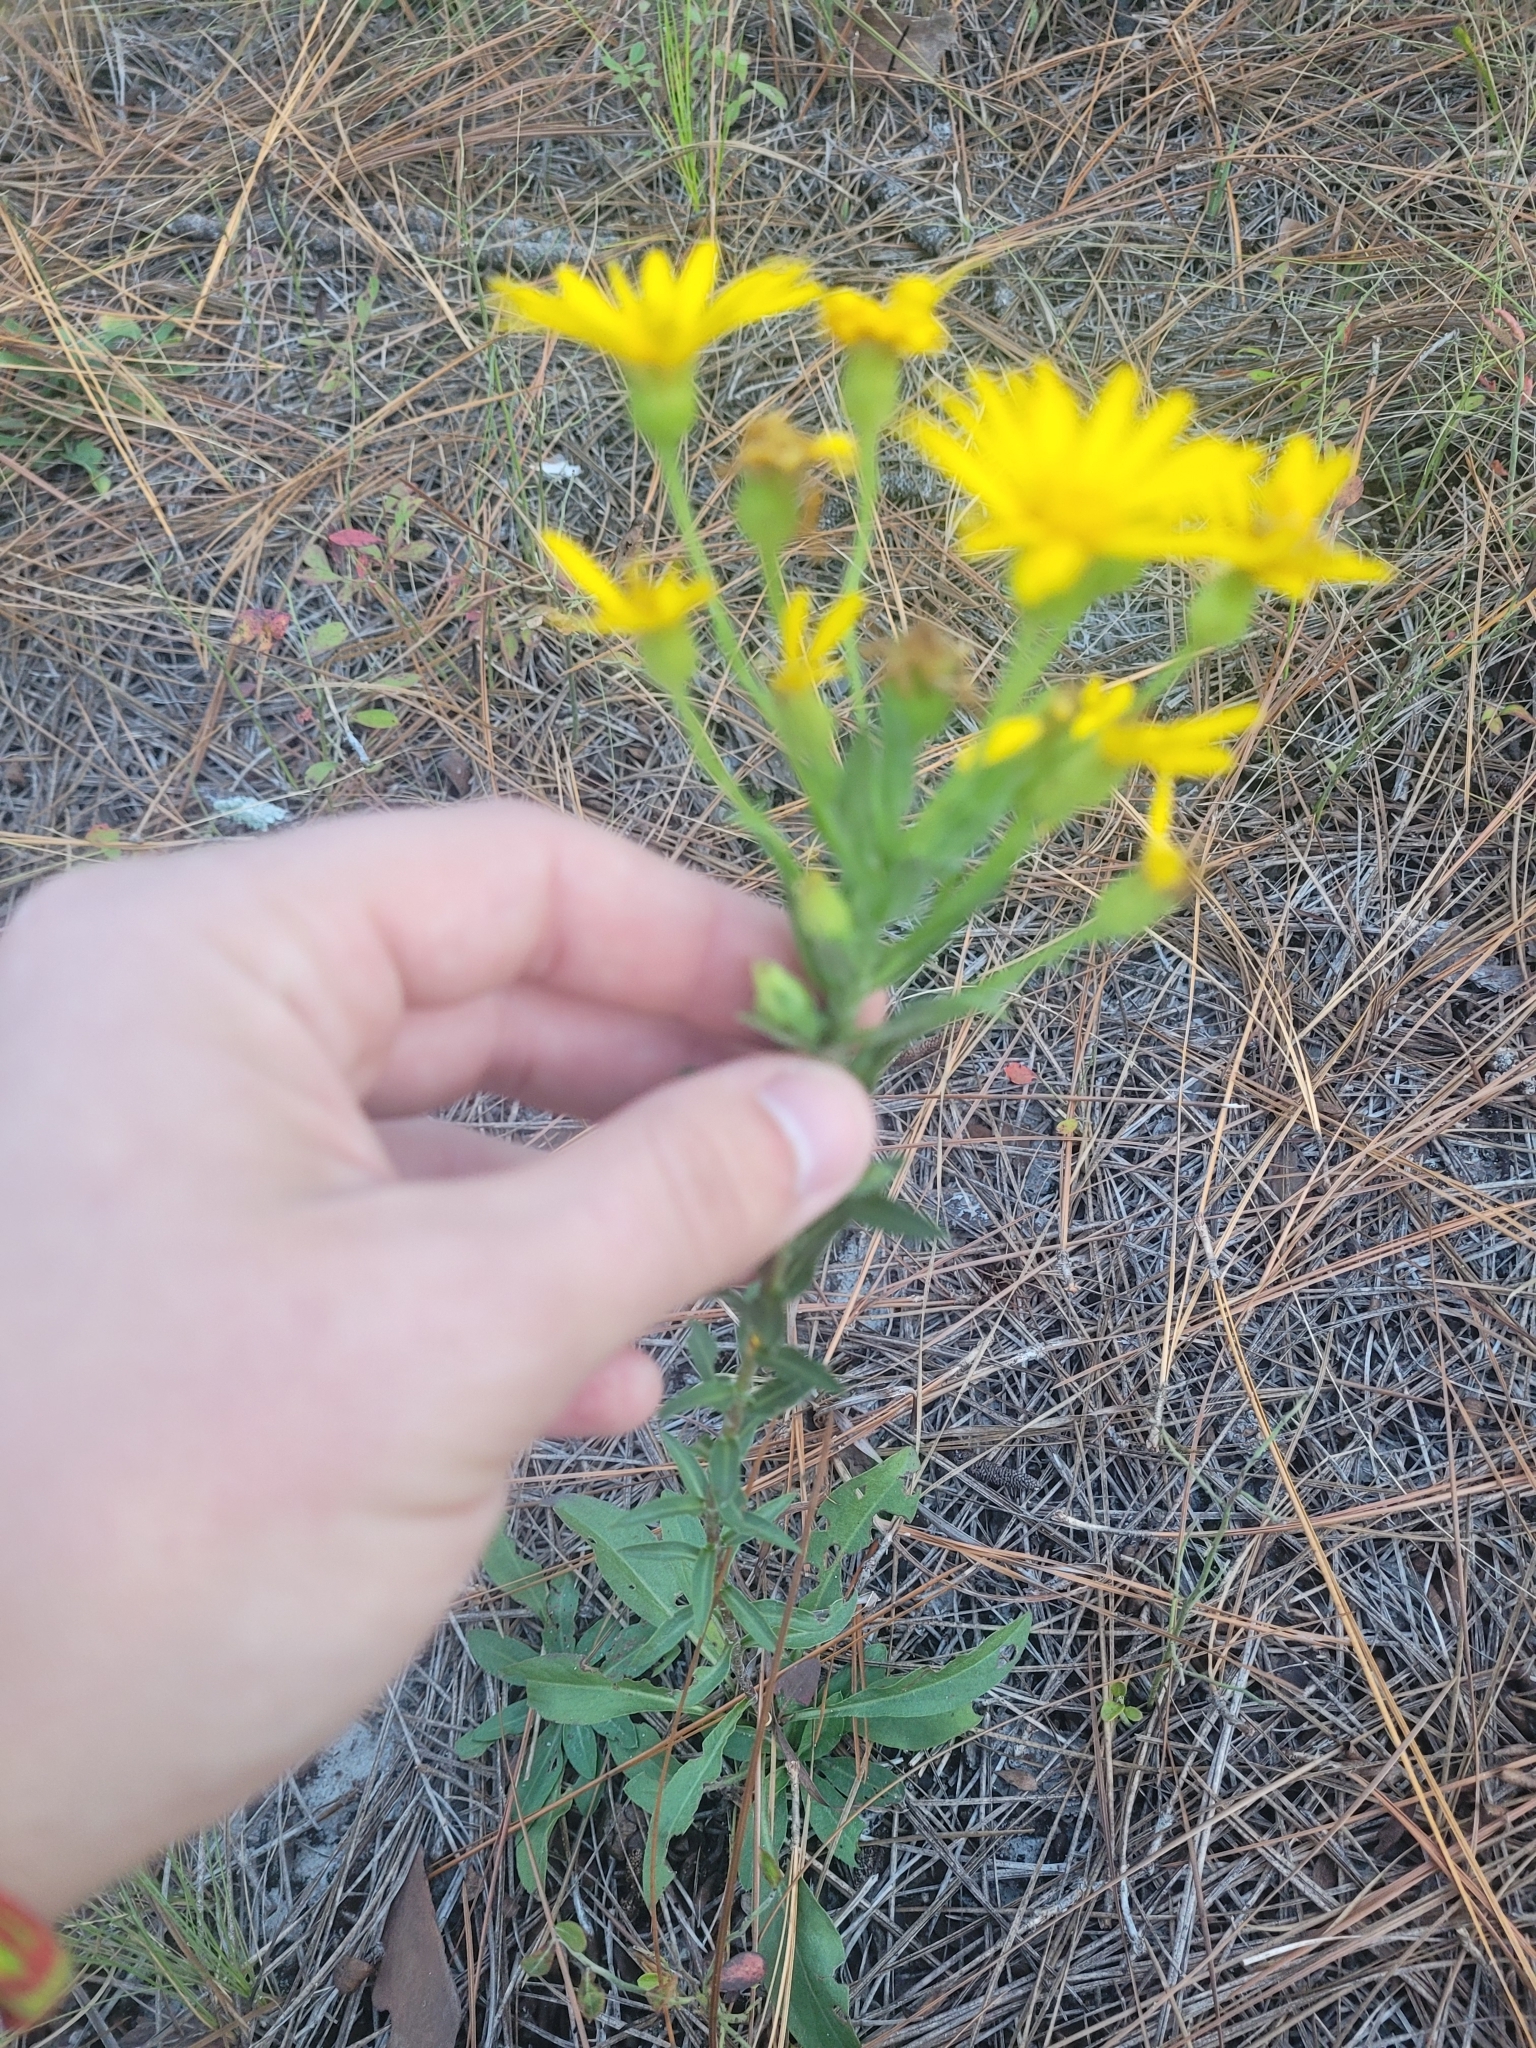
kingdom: Plantae
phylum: Tracheophyta
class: Magnoliopsida
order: Asterales
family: Asteraceae
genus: Chrysopsis
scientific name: Chrysopsis mariana
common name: Maryland golden-aster
